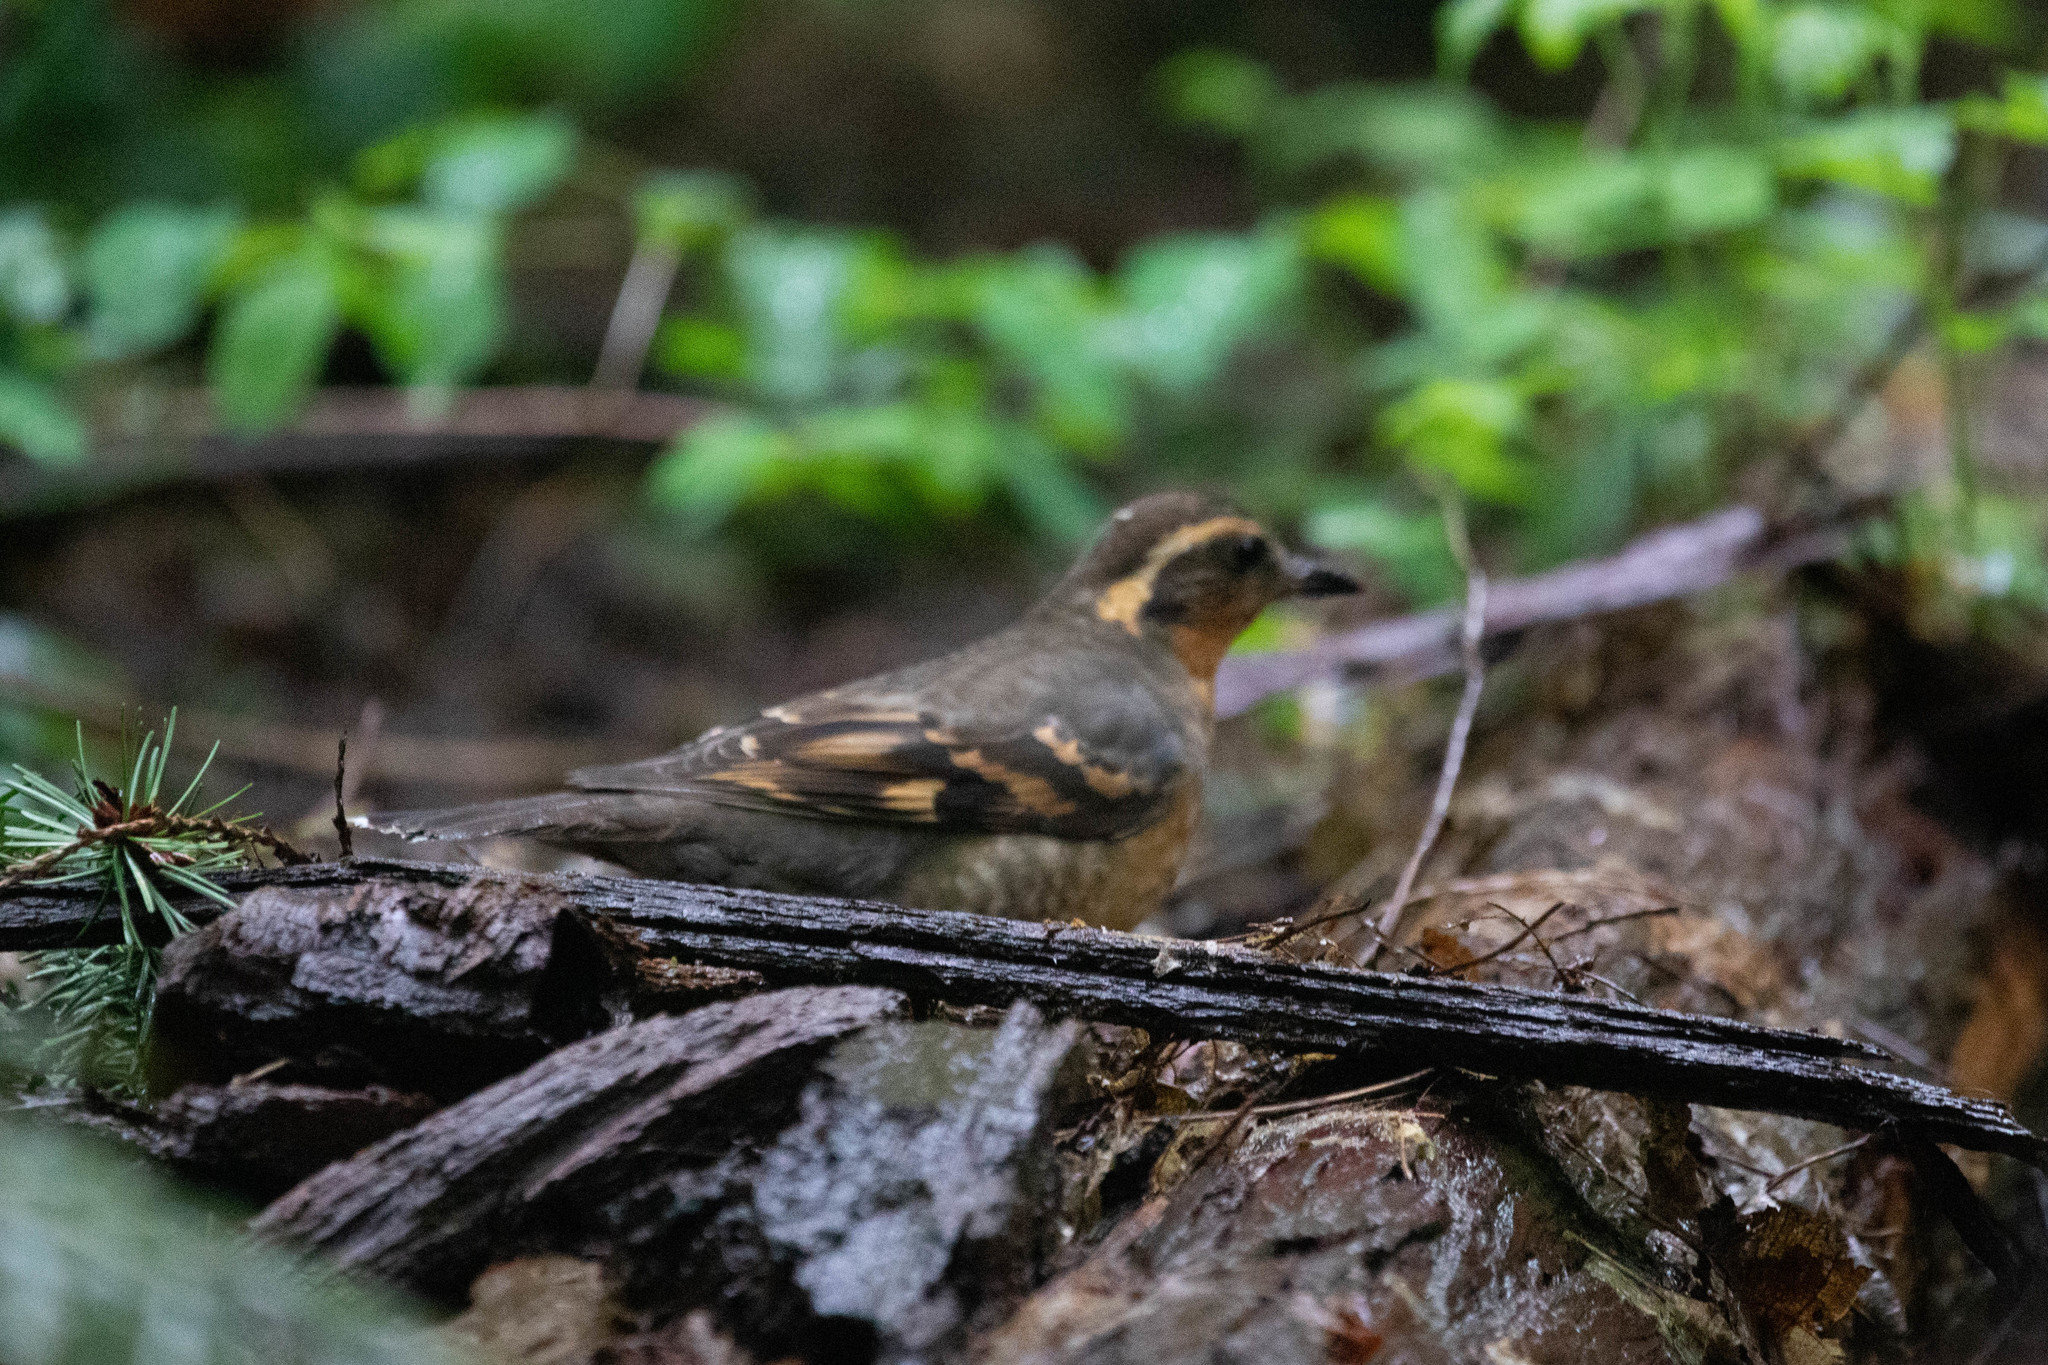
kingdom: Animalia
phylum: Chordata
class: Aves
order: Passeriformes
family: Turdidae
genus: Ixoreus
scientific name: Ixoreus naevius
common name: Varied thrush
